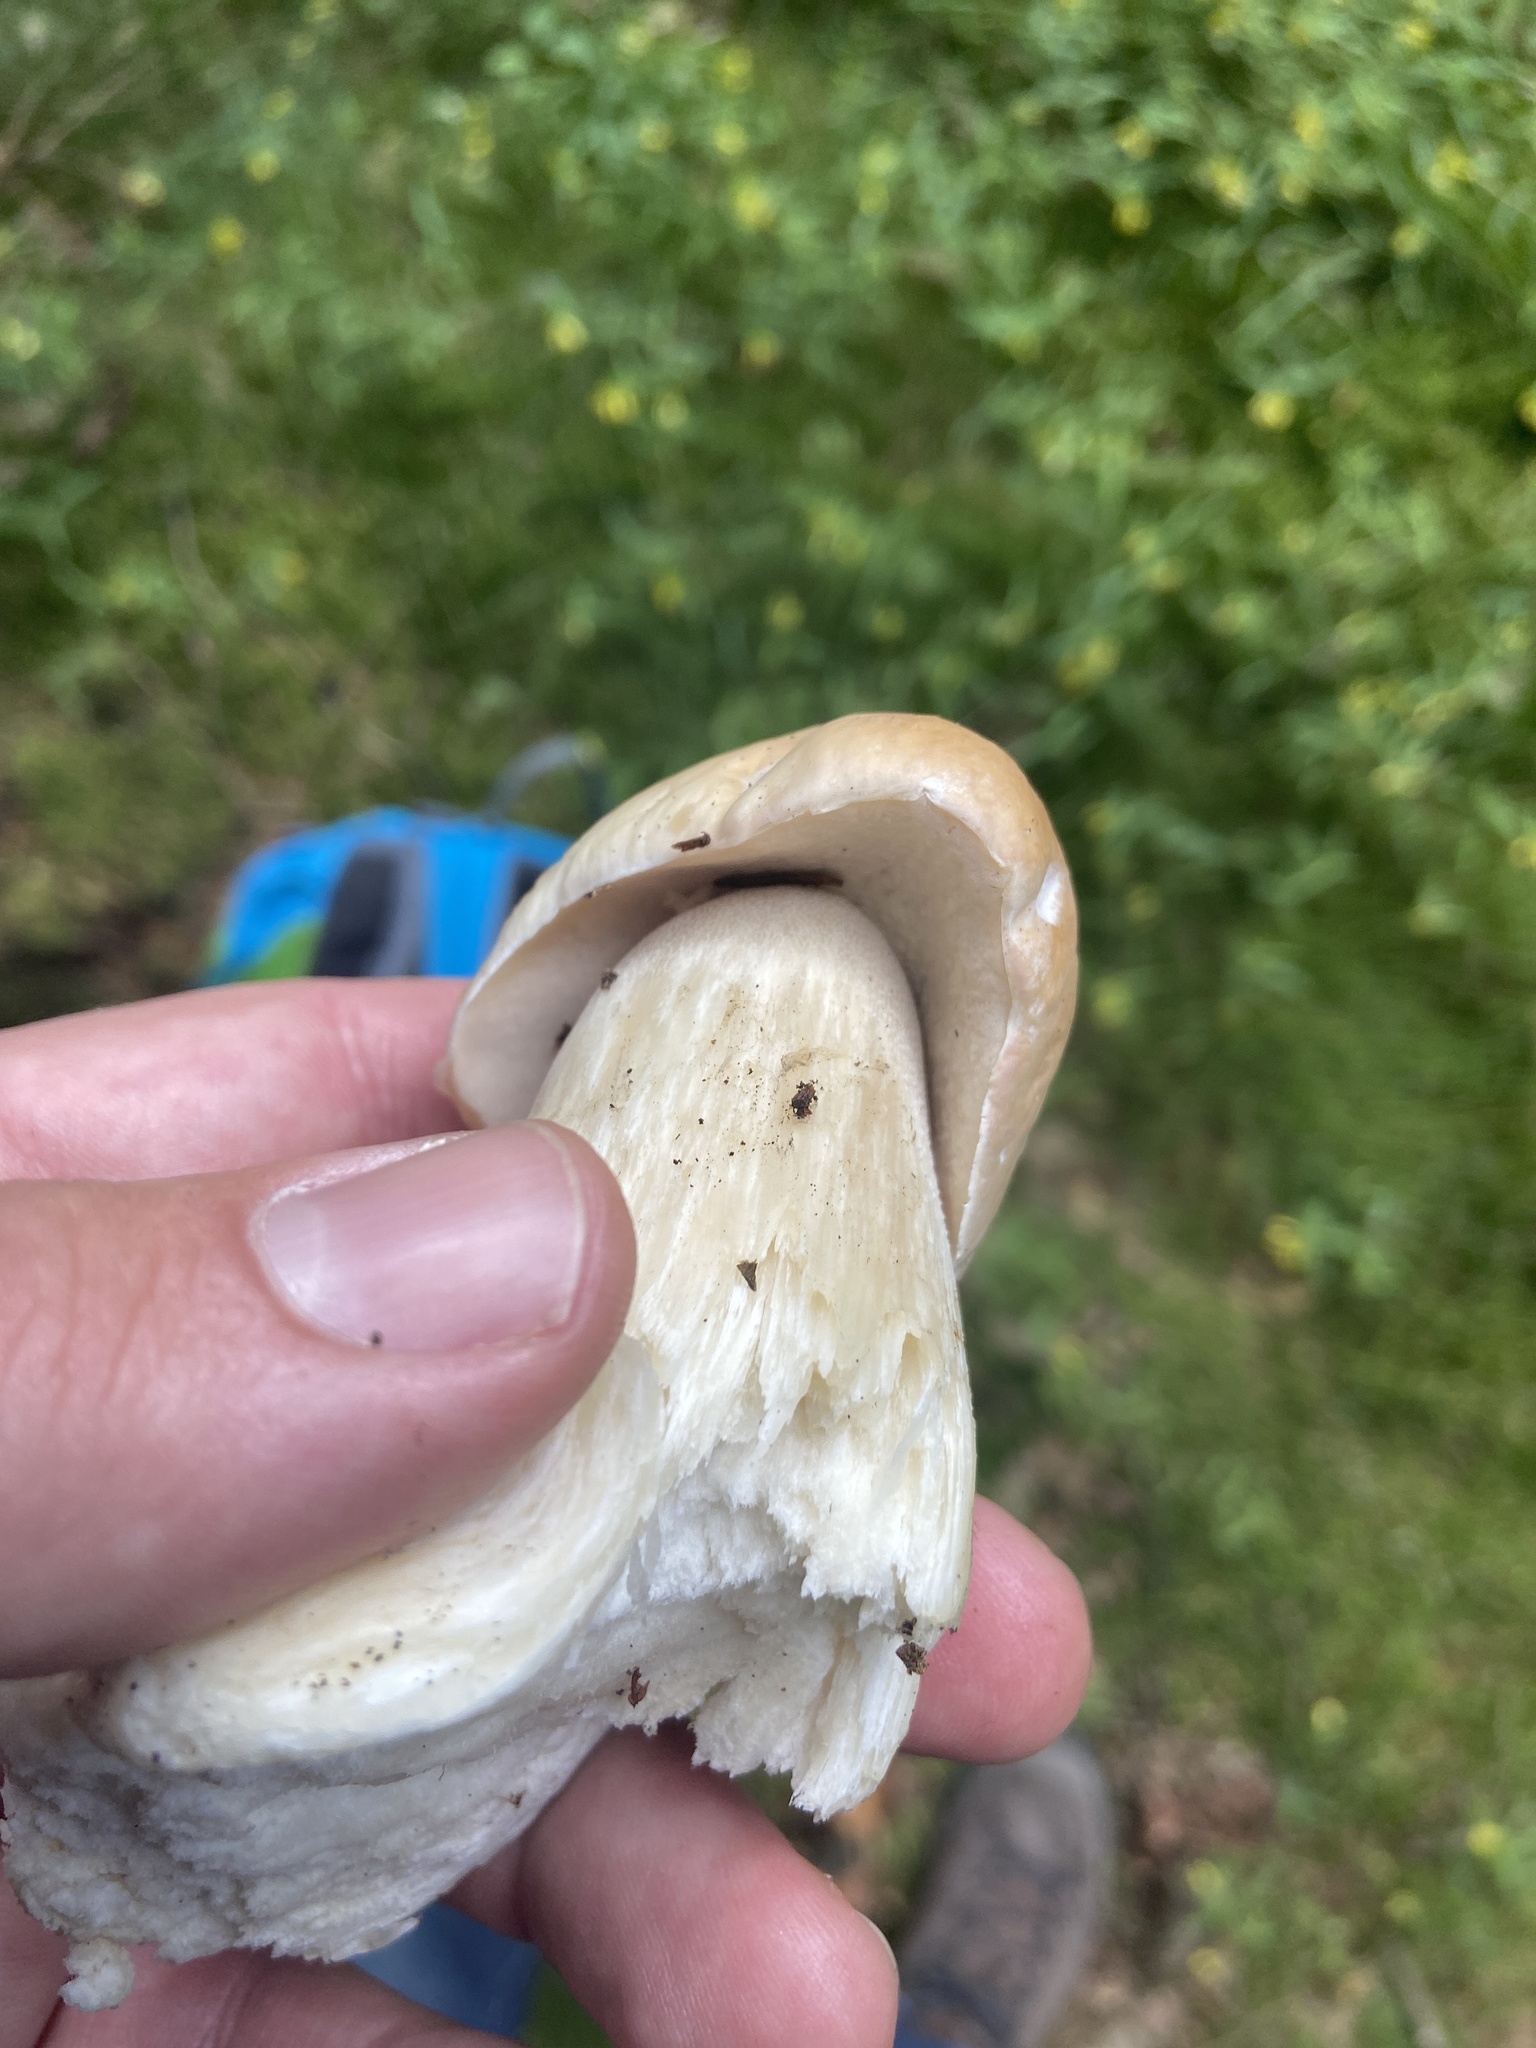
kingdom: Fungi
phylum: Basidiomycota
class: Agaricomycetes
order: Boletales
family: Boletaceae
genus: Boletus
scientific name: Boletus edulis
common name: Cep
